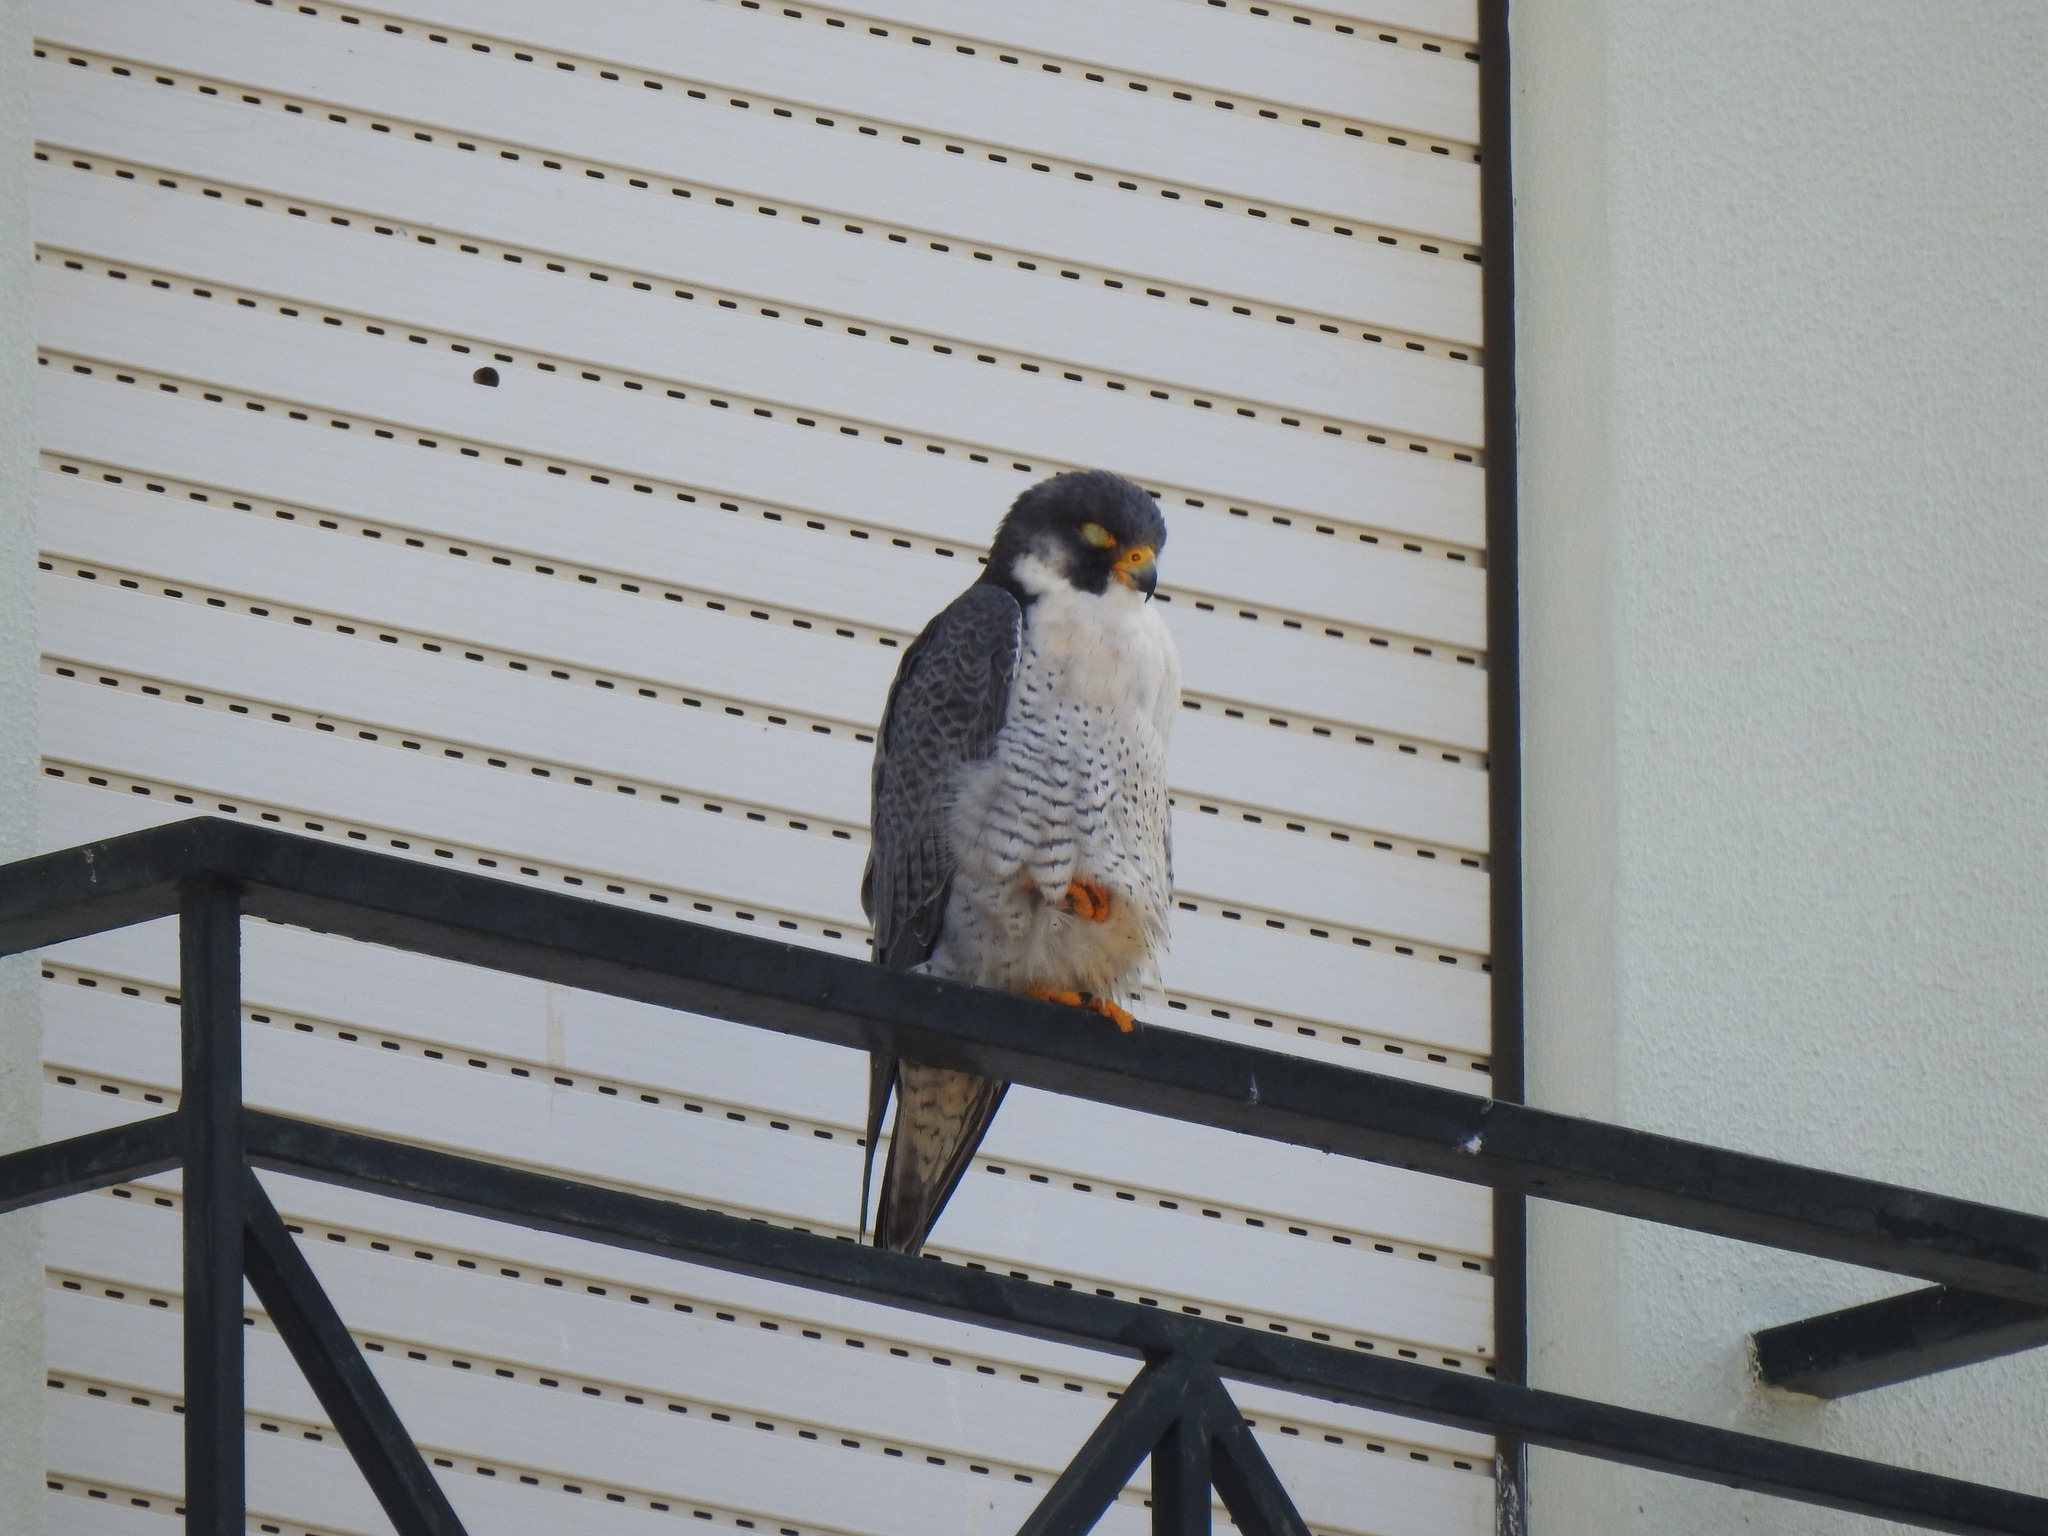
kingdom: Animalia
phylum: Chordata
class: Aves
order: Falconiformes
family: Falconidae
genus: Falco
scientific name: Falco peregrinus
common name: Peregrine falcon
